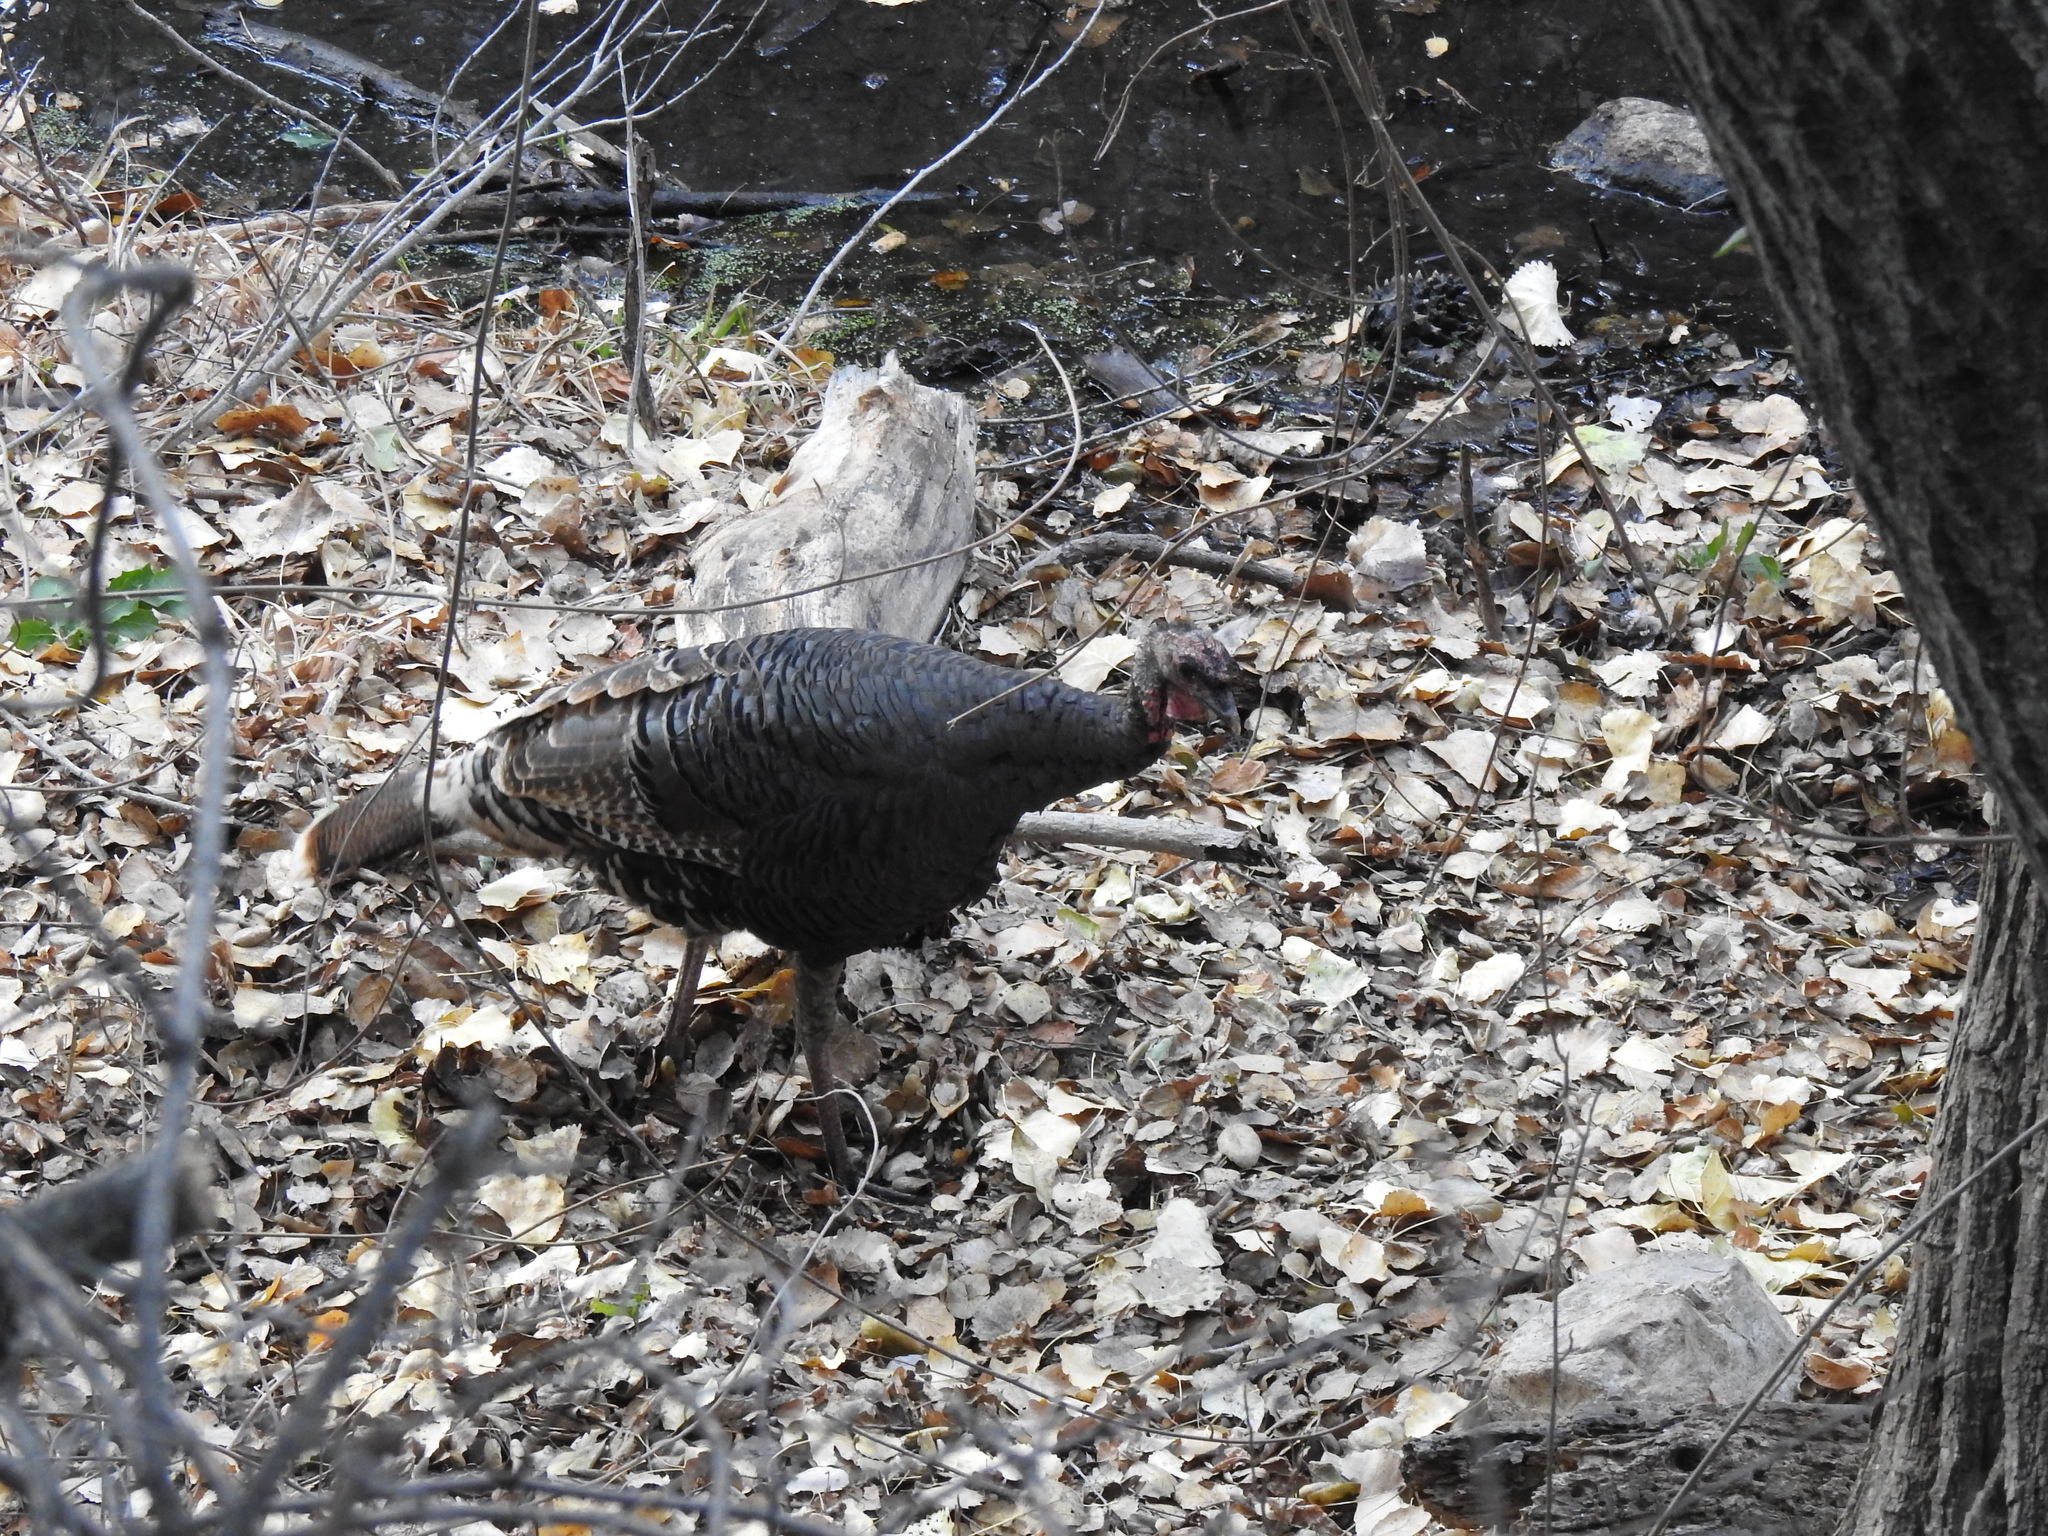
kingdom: Animalia
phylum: Chordata
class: Aves
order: Galliformes
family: Phasianidae
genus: Meleagris
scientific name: Meleagris gallopavo
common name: Wild turkey
